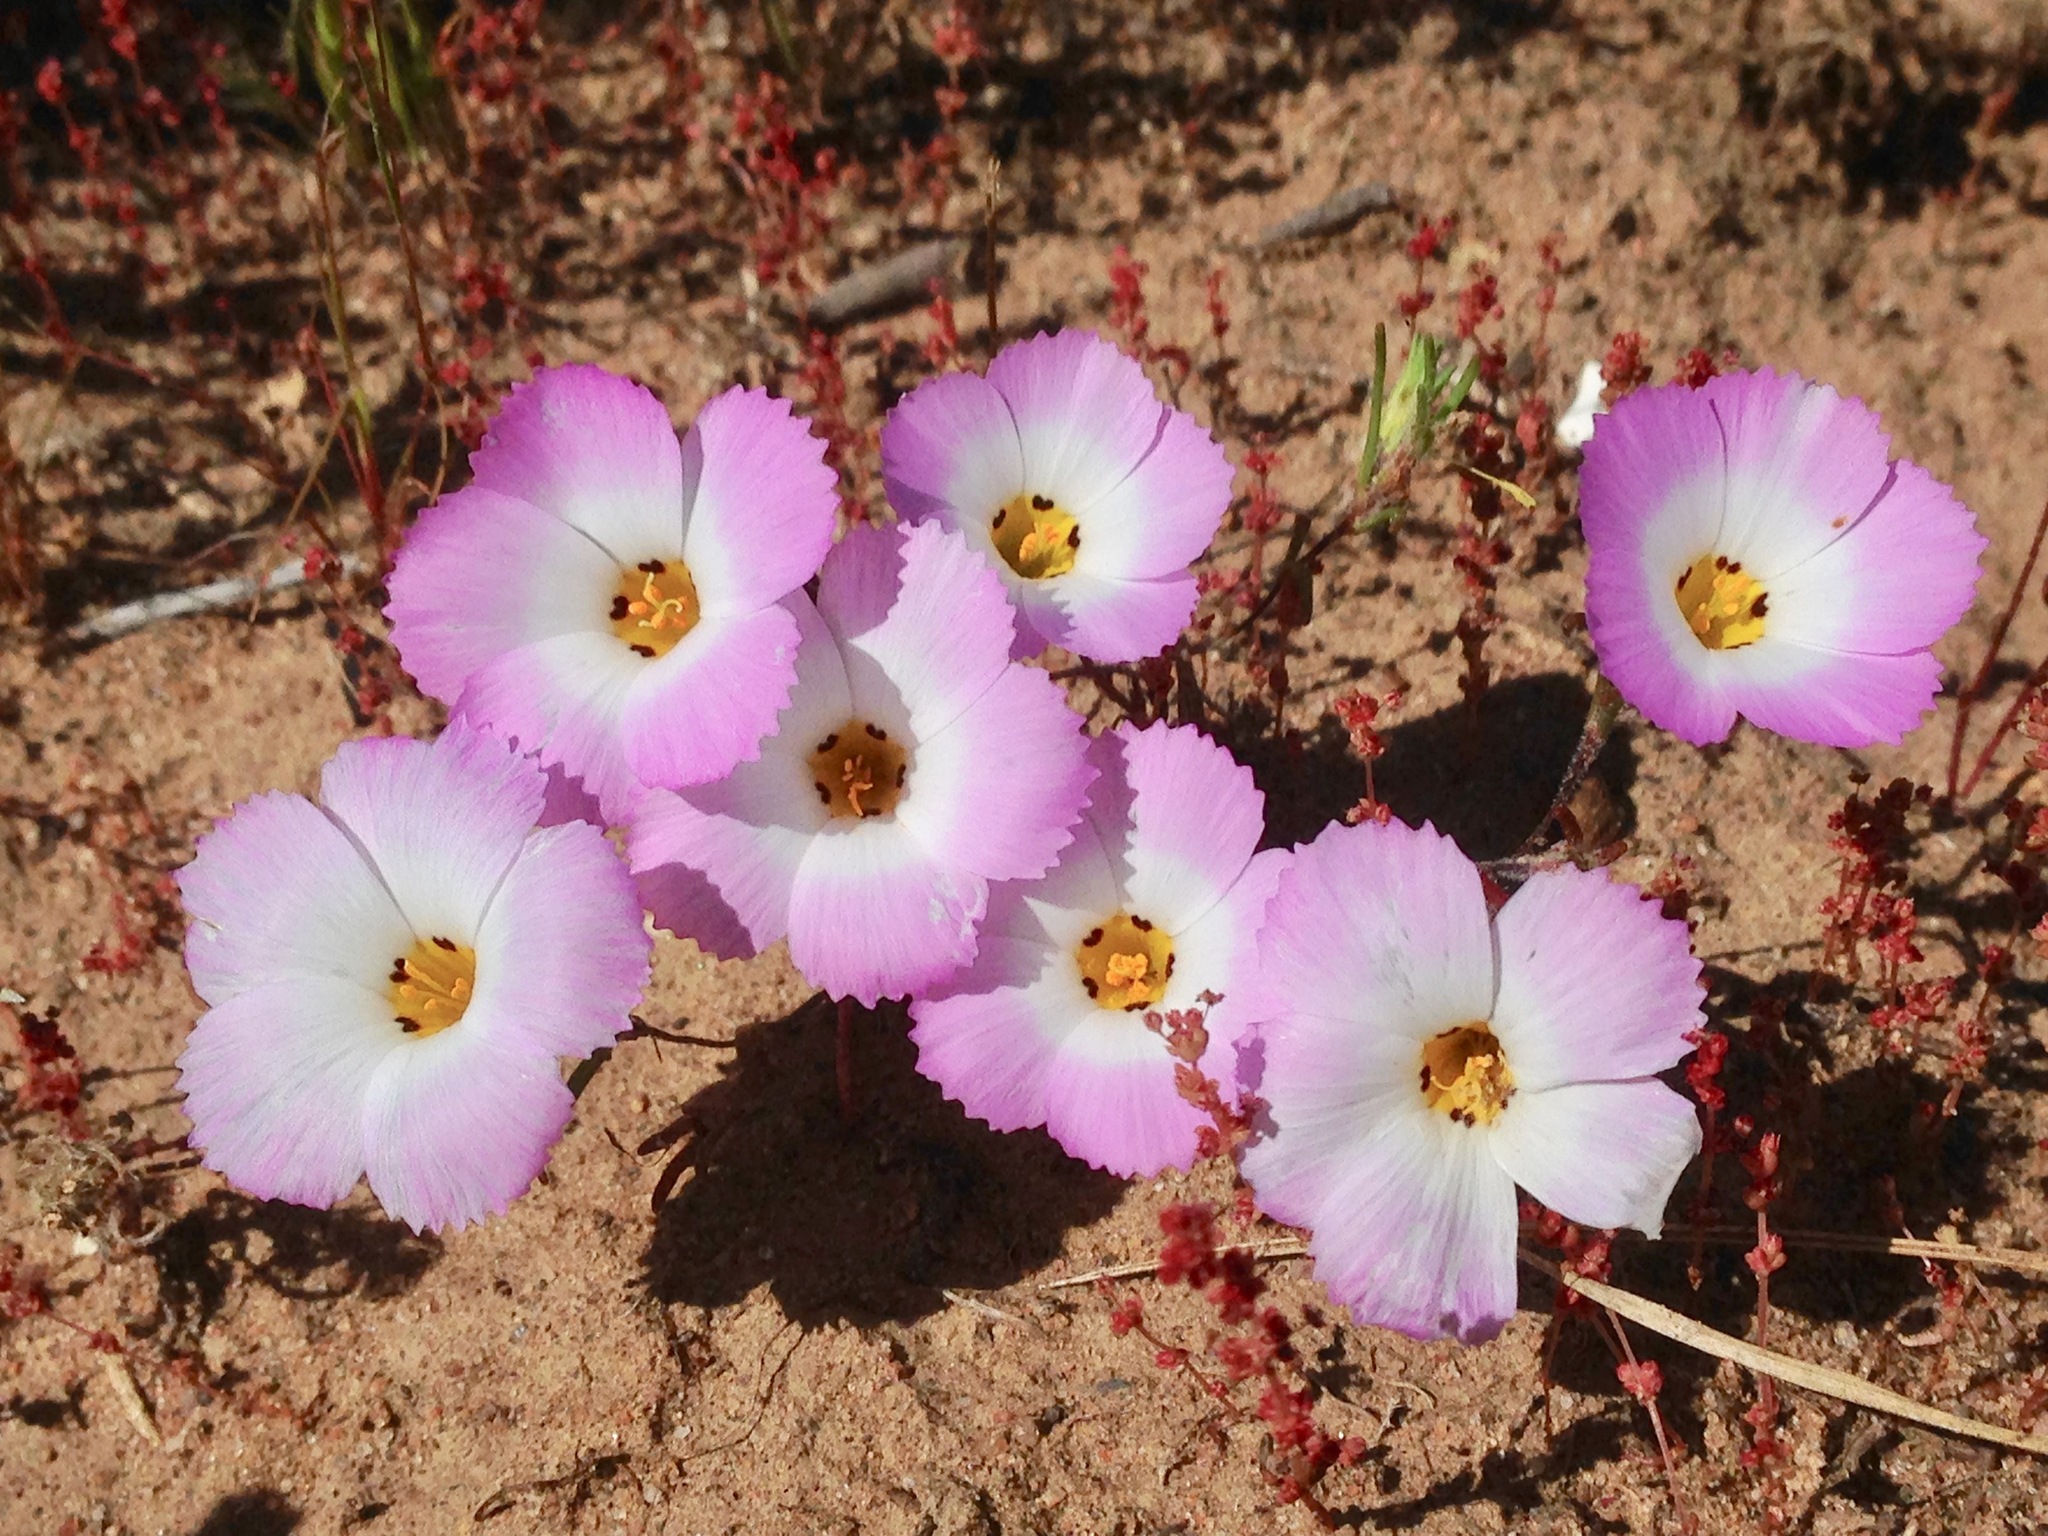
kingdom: Plantae
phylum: Tracheophyta
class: Magnoliopsida
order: Ericales
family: Polemoniaceae
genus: Linanthus
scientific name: Linanthus dianthiflorus
